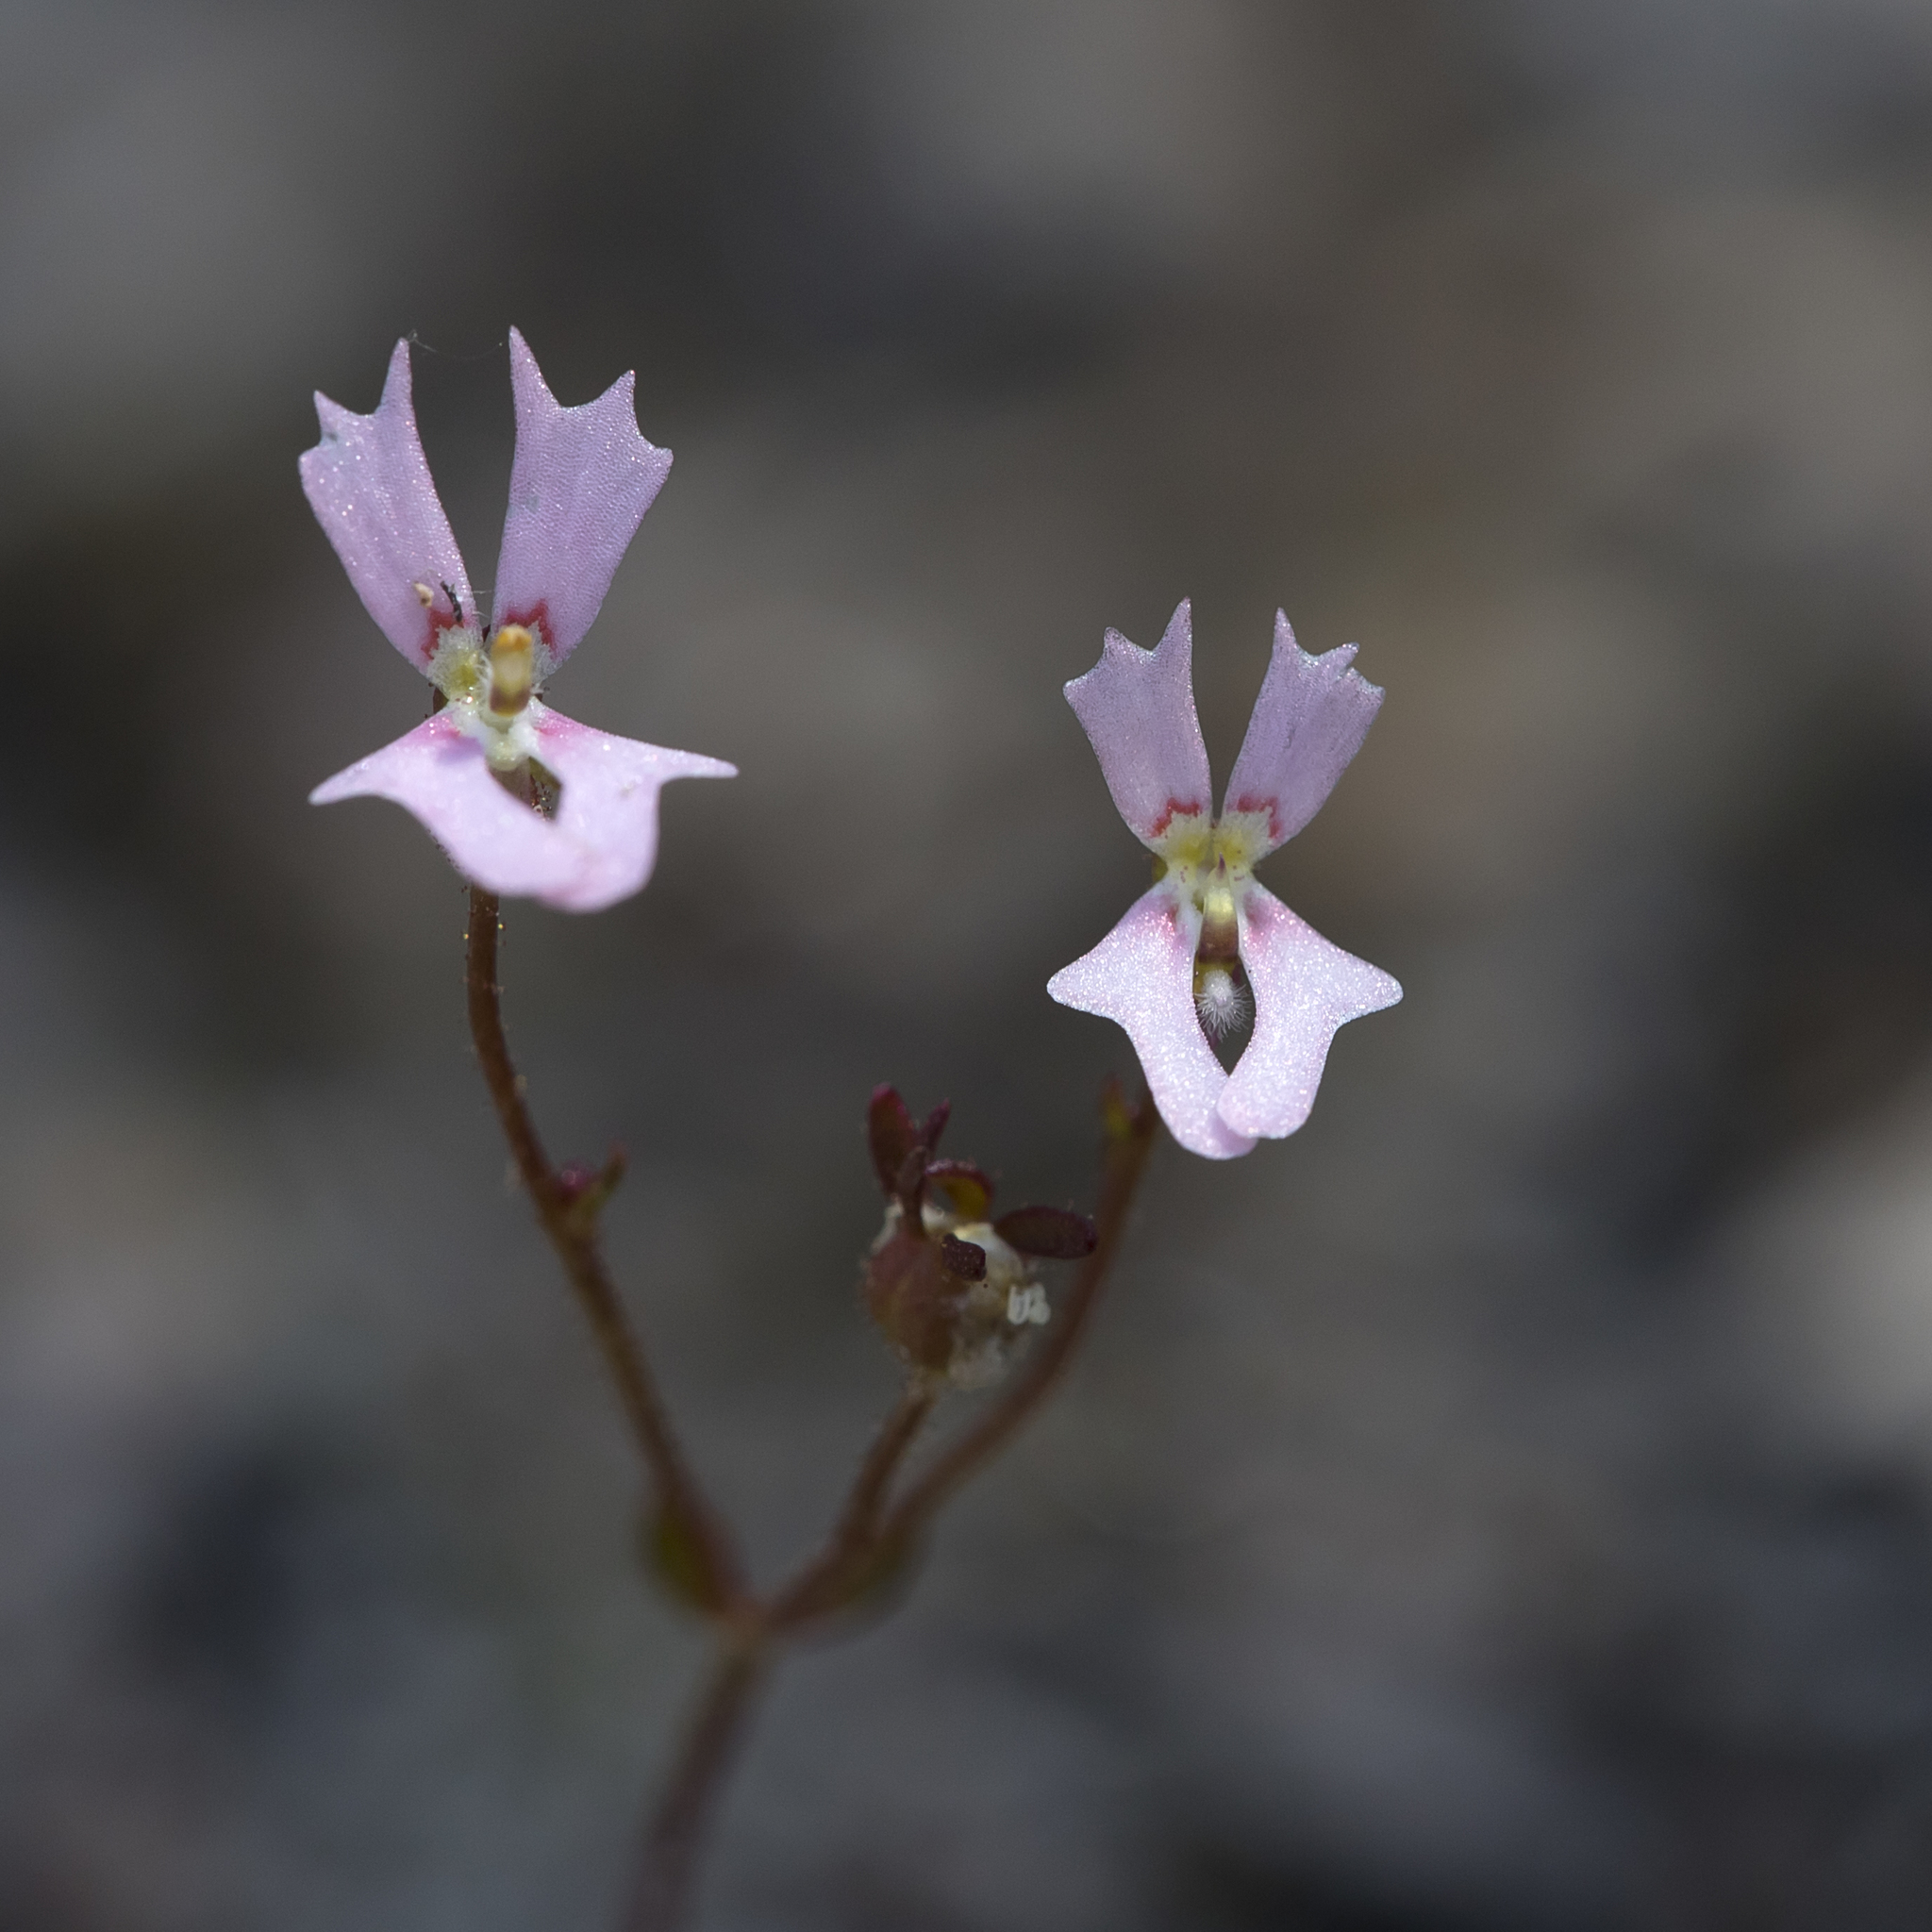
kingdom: Plantae
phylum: Tracheophyta
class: Magnoliopsida
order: Asterales
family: Stylidiaceae
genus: Stylidium
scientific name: Stylidium calcaratum
